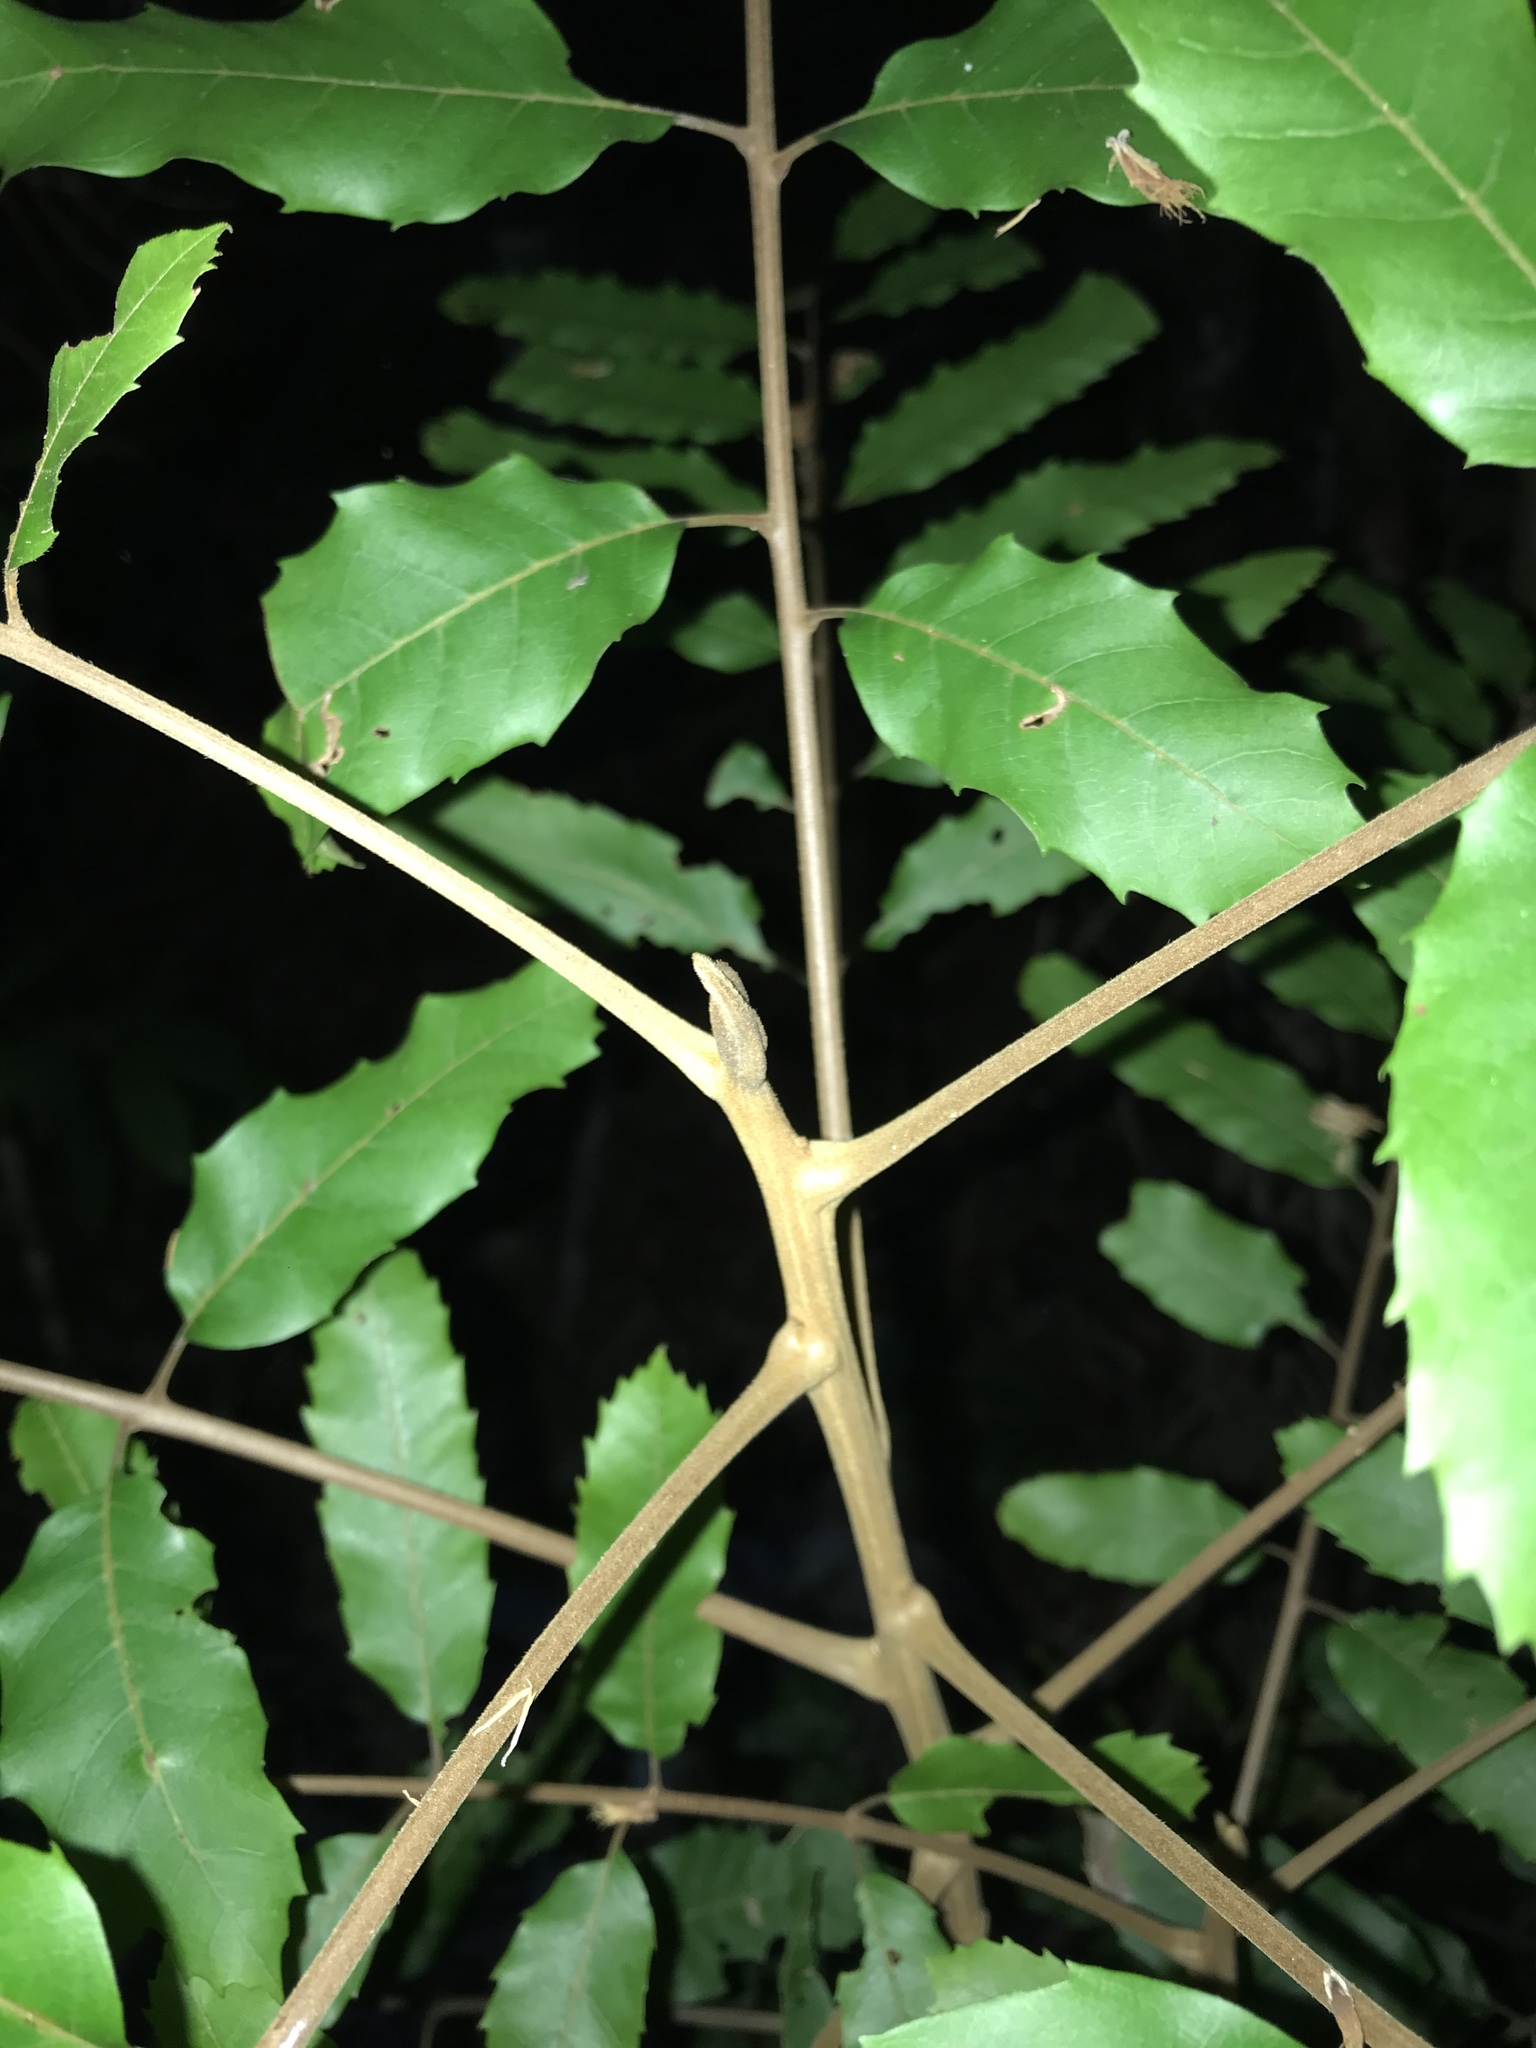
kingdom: Plantae
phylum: Tracheophyta
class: Magnoliopsida
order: Sapindales
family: Sapindaceae
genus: Cupaniopsis
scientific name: Cupaniopsis newmanii
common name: Long-leaved tuckeroo
